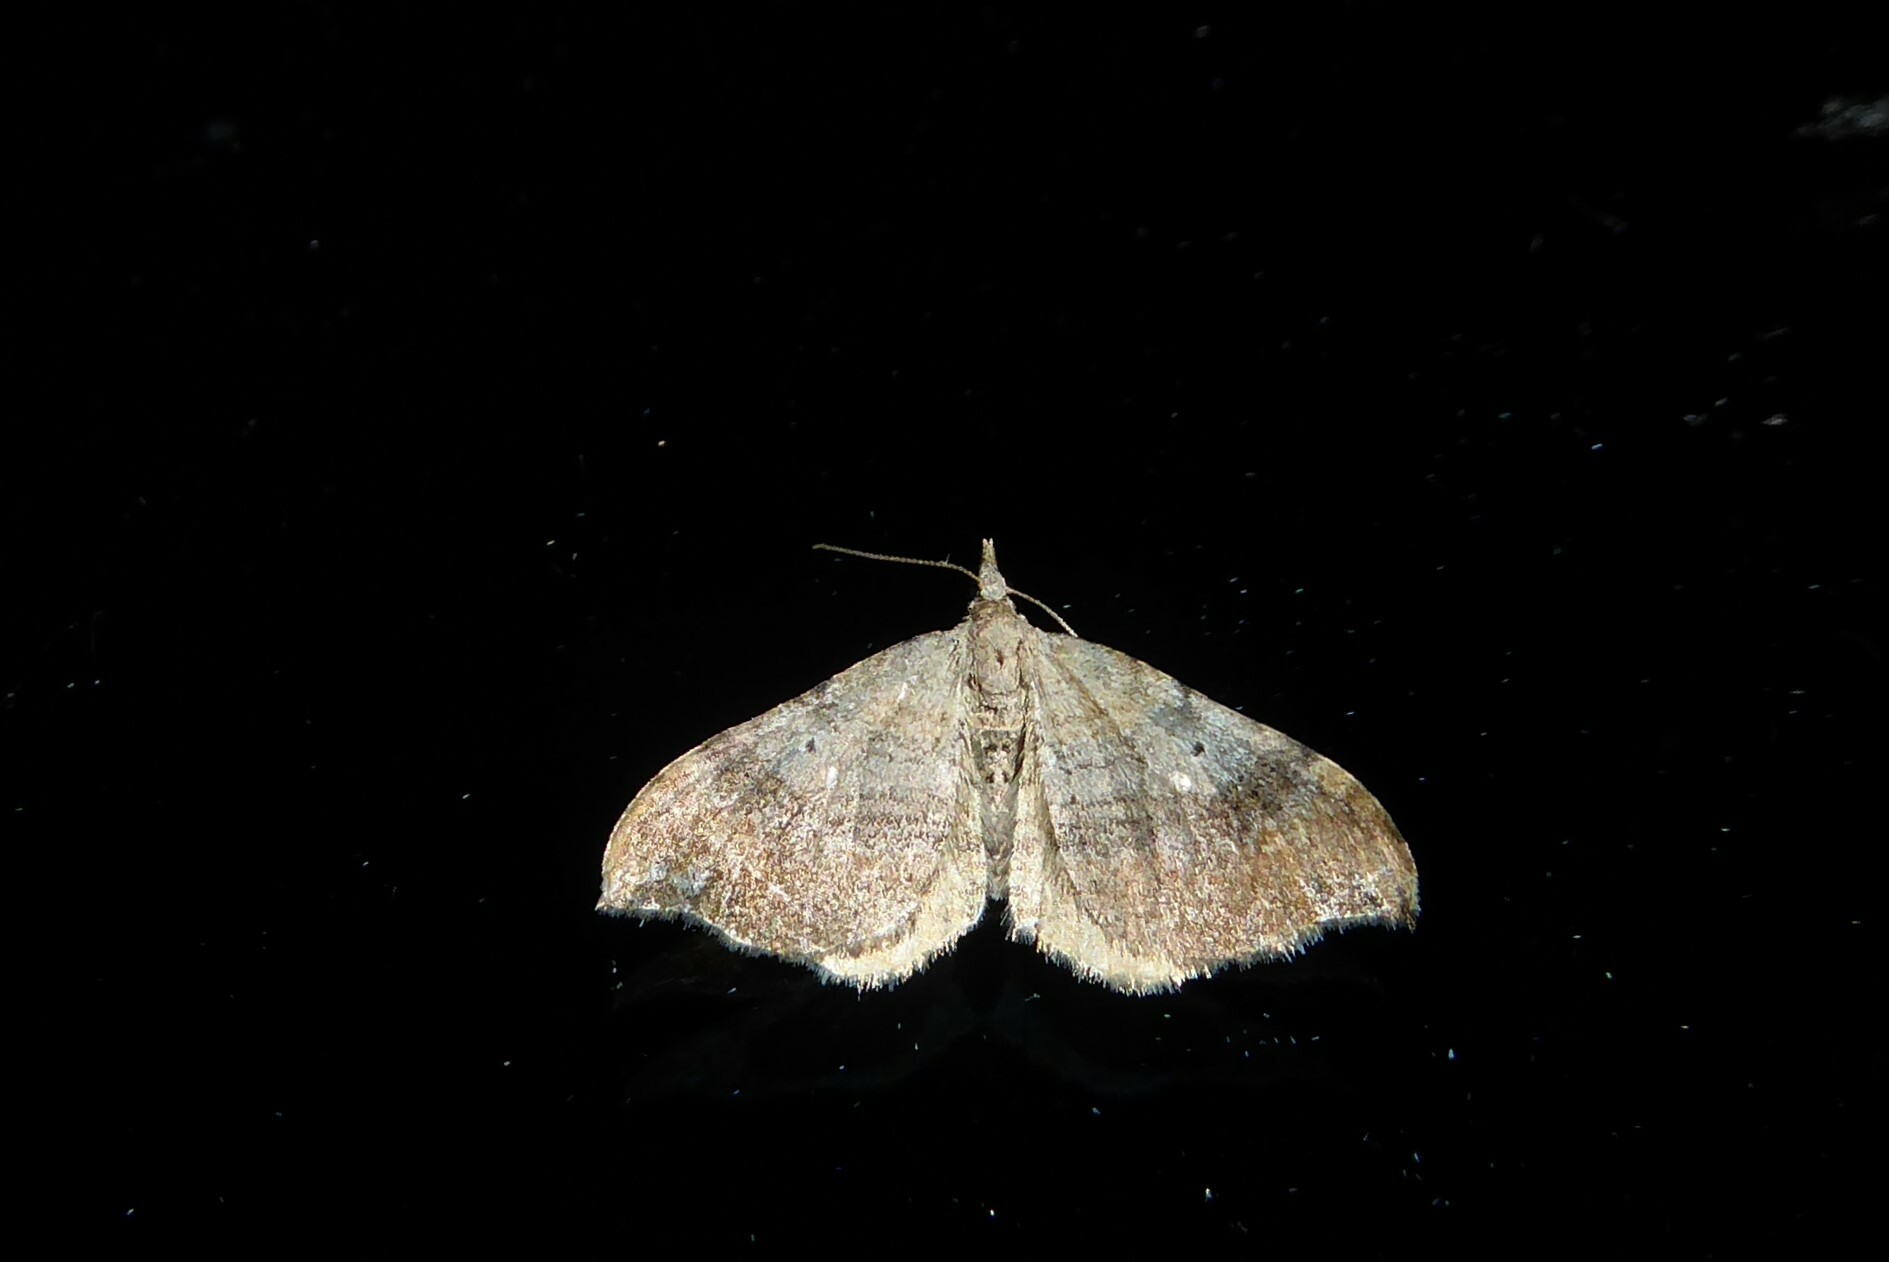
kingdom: Animalia
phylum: Arthropoda
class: Insecta
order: Lepidoptera
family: Geometridae
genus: Homodotis
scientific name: Homodotis megaspilata
